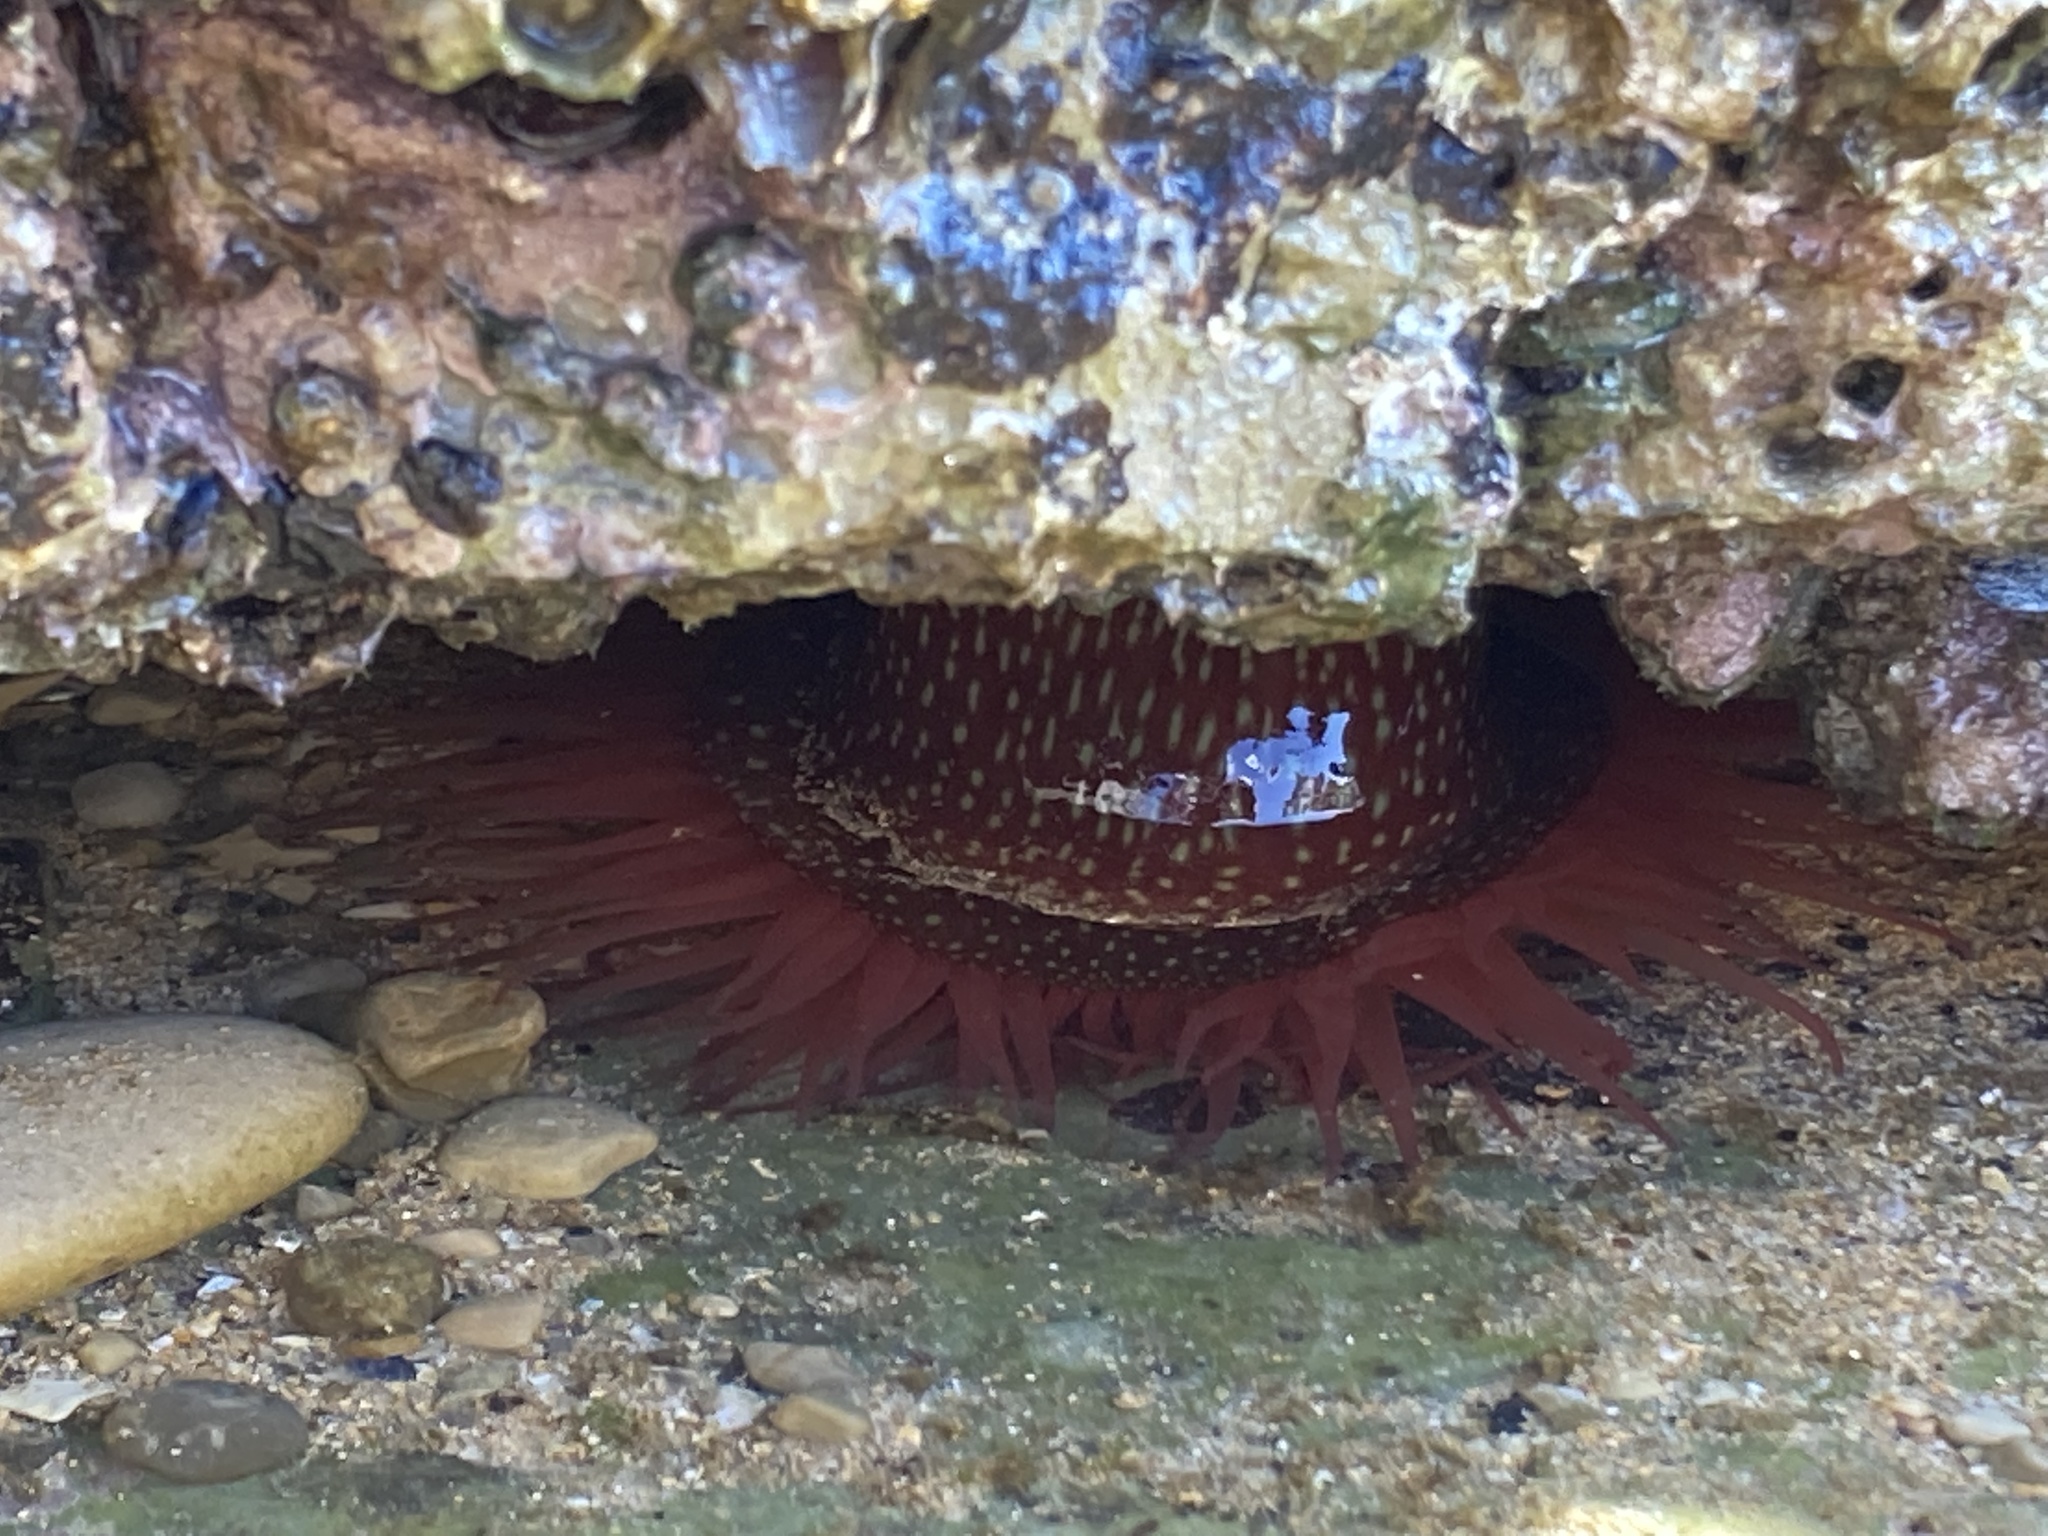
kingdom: Animalia
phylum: Cnidaria
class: Anthozoa
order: Actiniaria
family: Actiniidae
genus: Actinia
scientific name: Actinia fragacea
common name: Strawberry anemone
